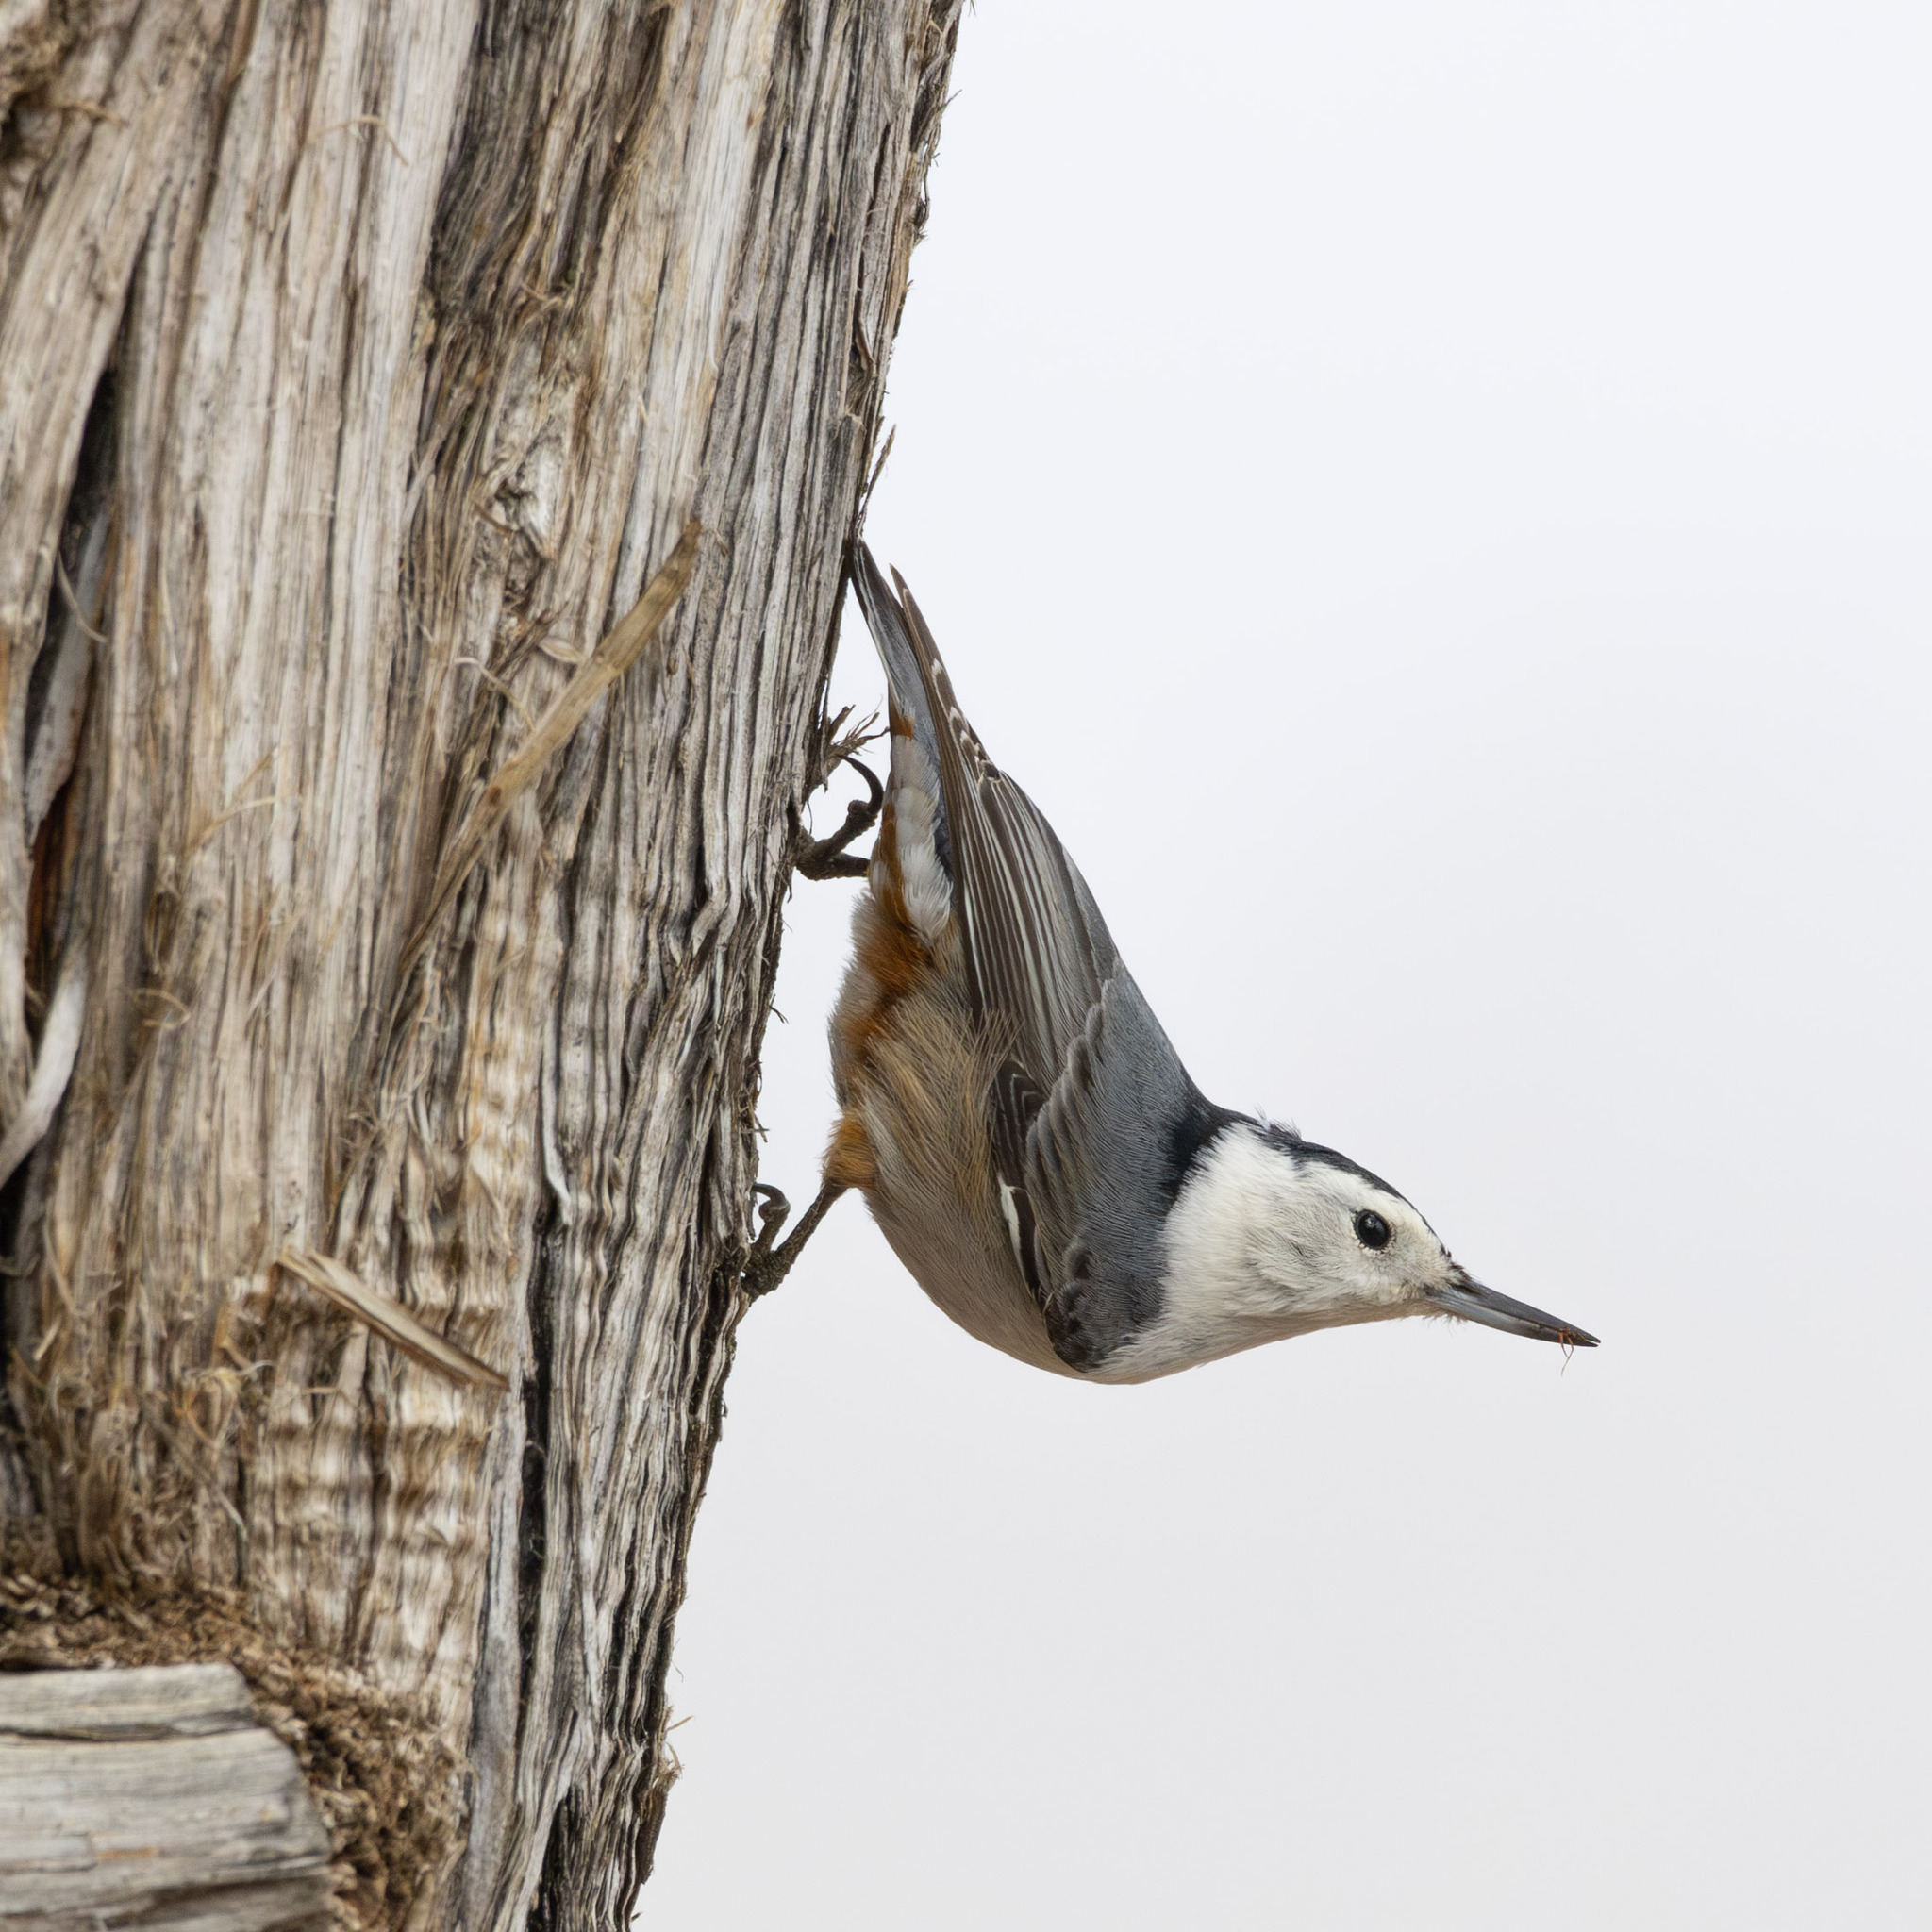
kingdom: Animalia
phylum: Chordata
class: Aves
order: Passeriformes
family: Sittidae
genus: Sitta
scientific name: Sitta carolinensis
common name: White-breasted nuthatch
